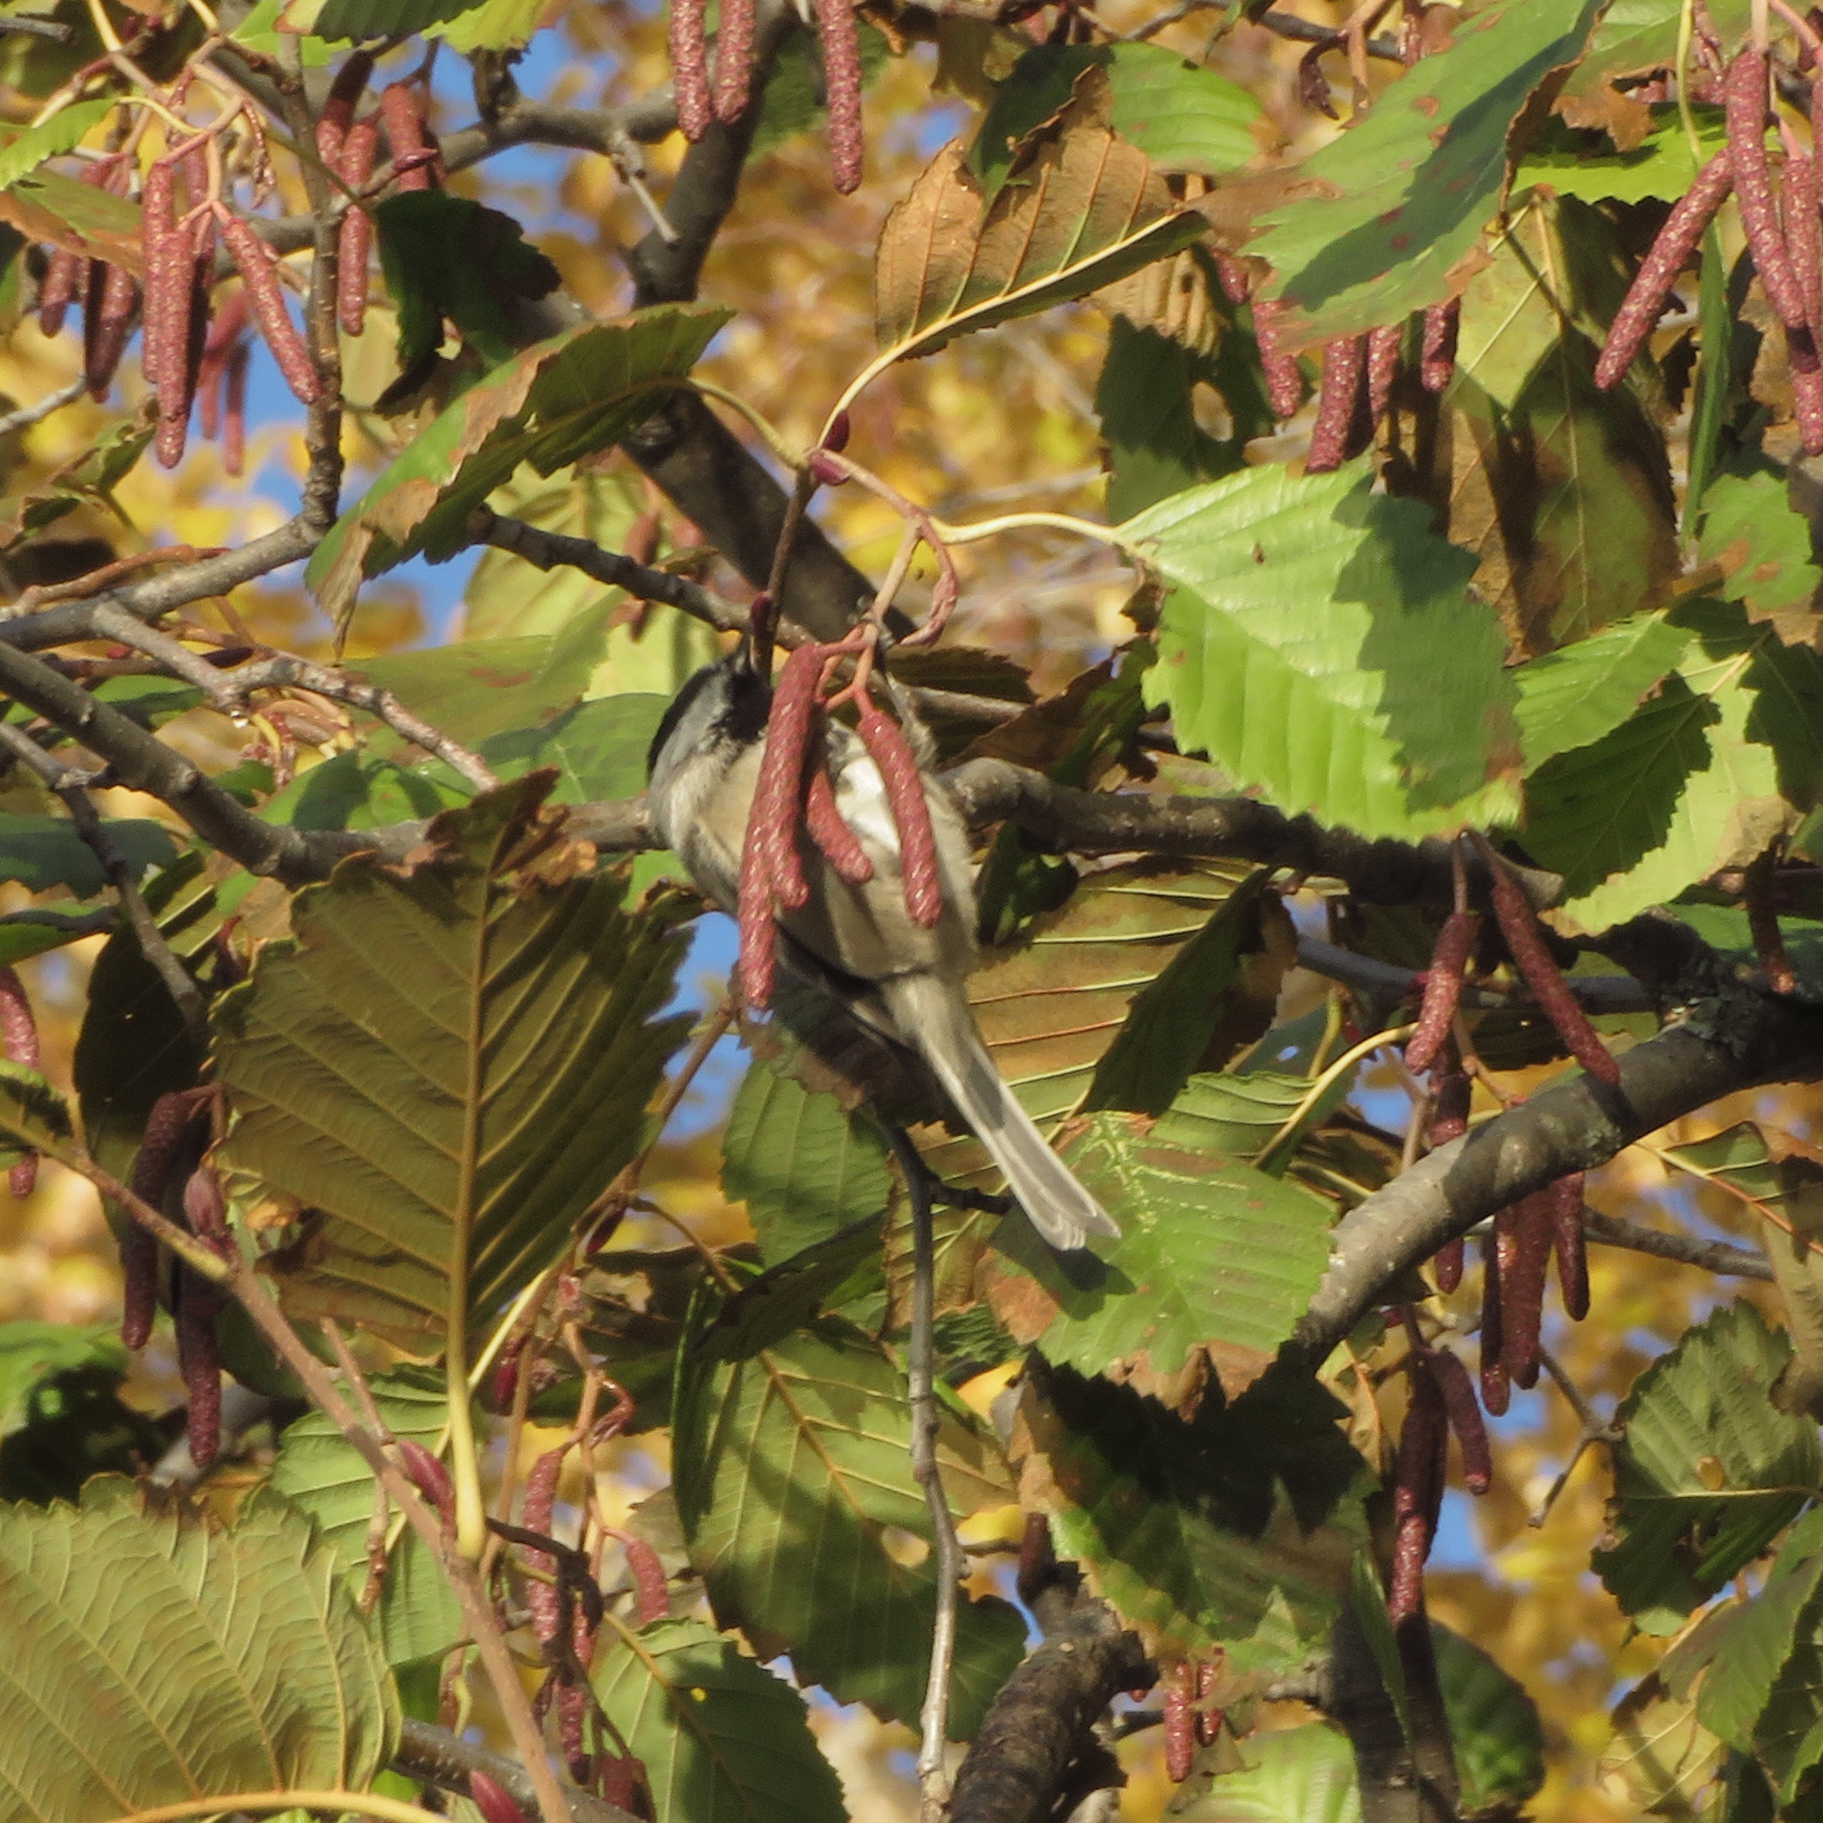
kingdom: Animalia
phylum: Chordata
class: Aves
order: Passeriformes
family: Paridae
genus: Poecile
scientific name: Poecile gambeli
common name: Mountain chickadee
